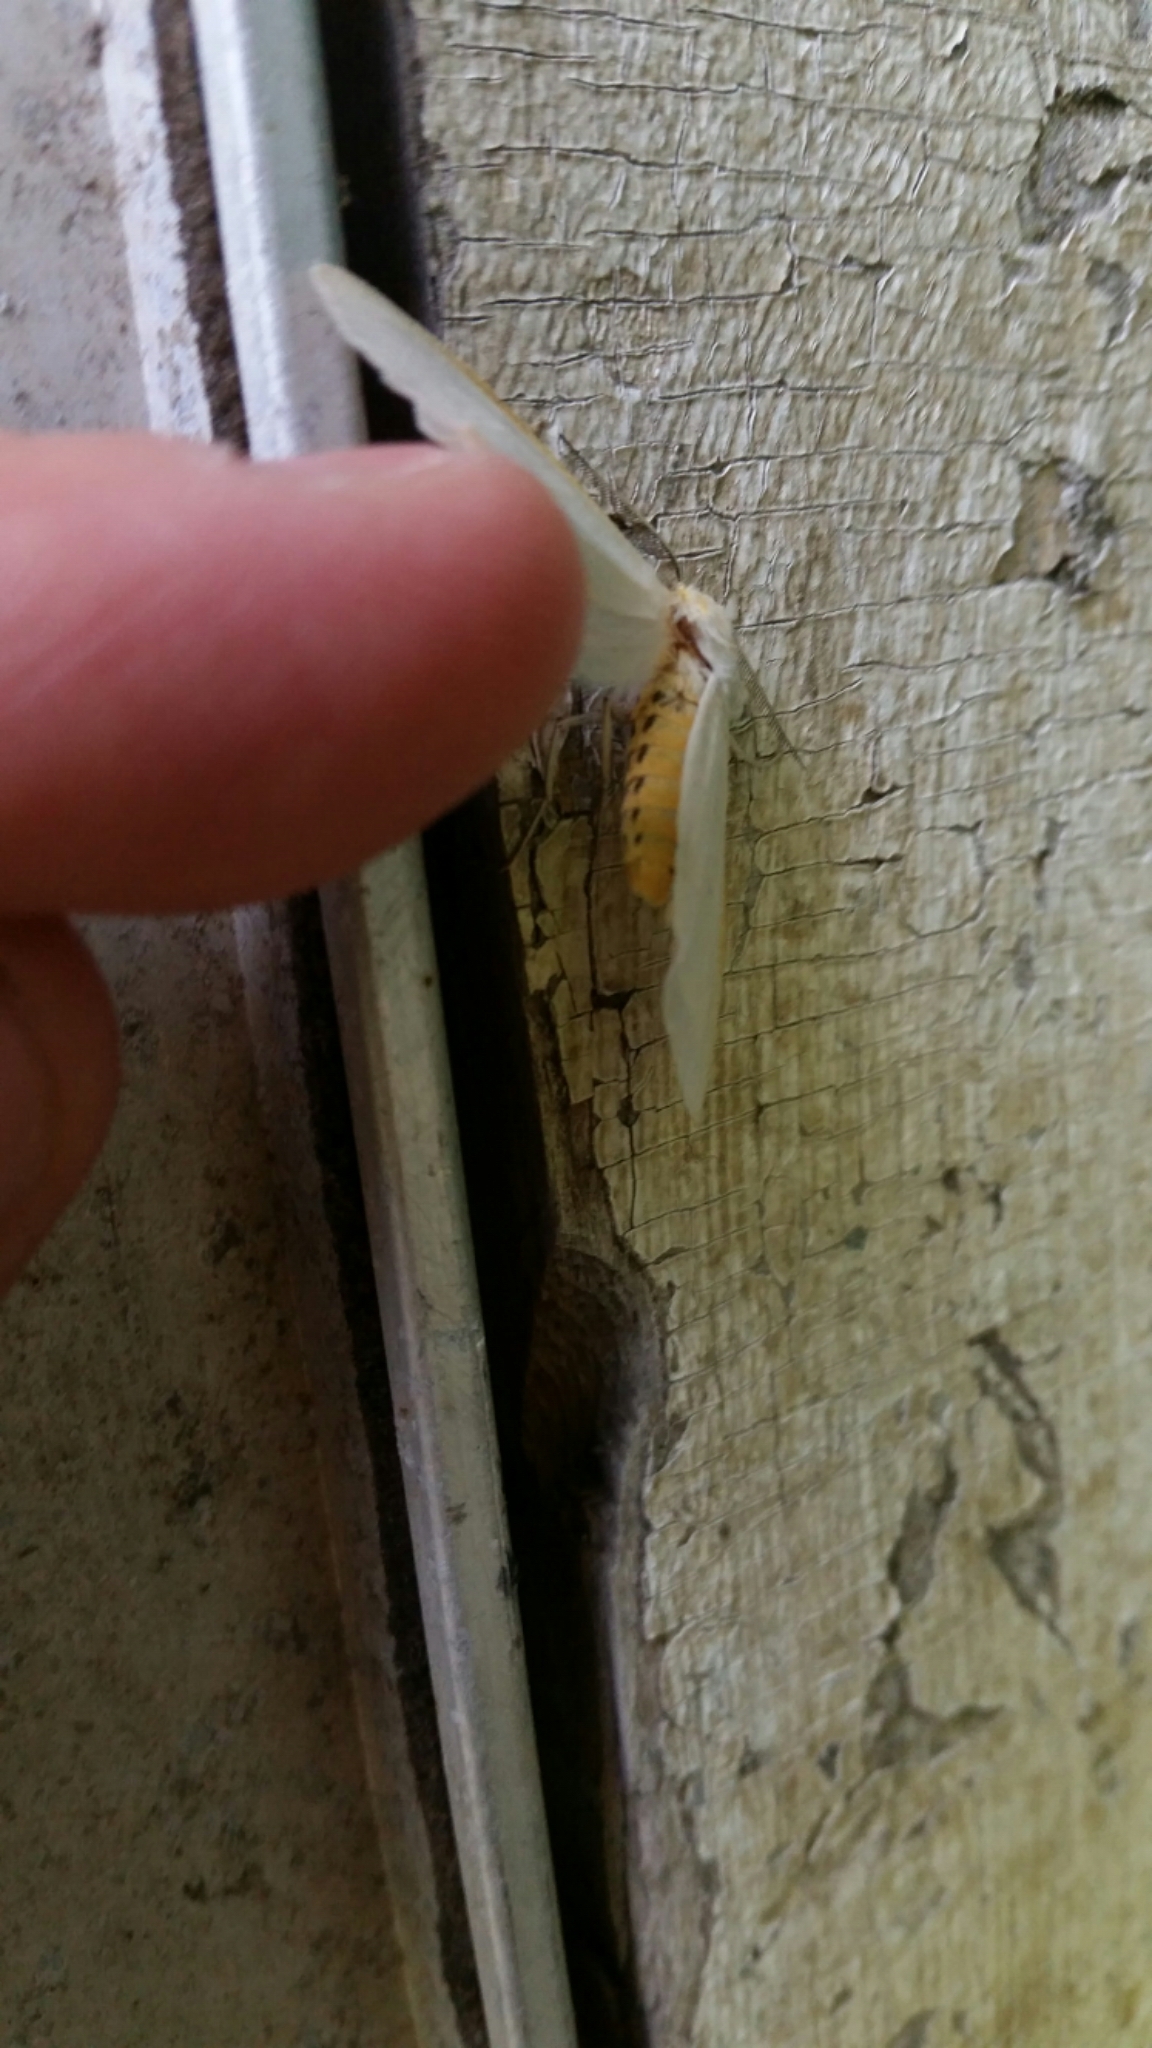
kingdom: Animalia
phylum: Arthropoda
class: Insecta
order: Lepidoptera
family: Erebidae
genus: Cycnia
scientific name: Cycnia tenera
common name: Delicate cycnia moth
